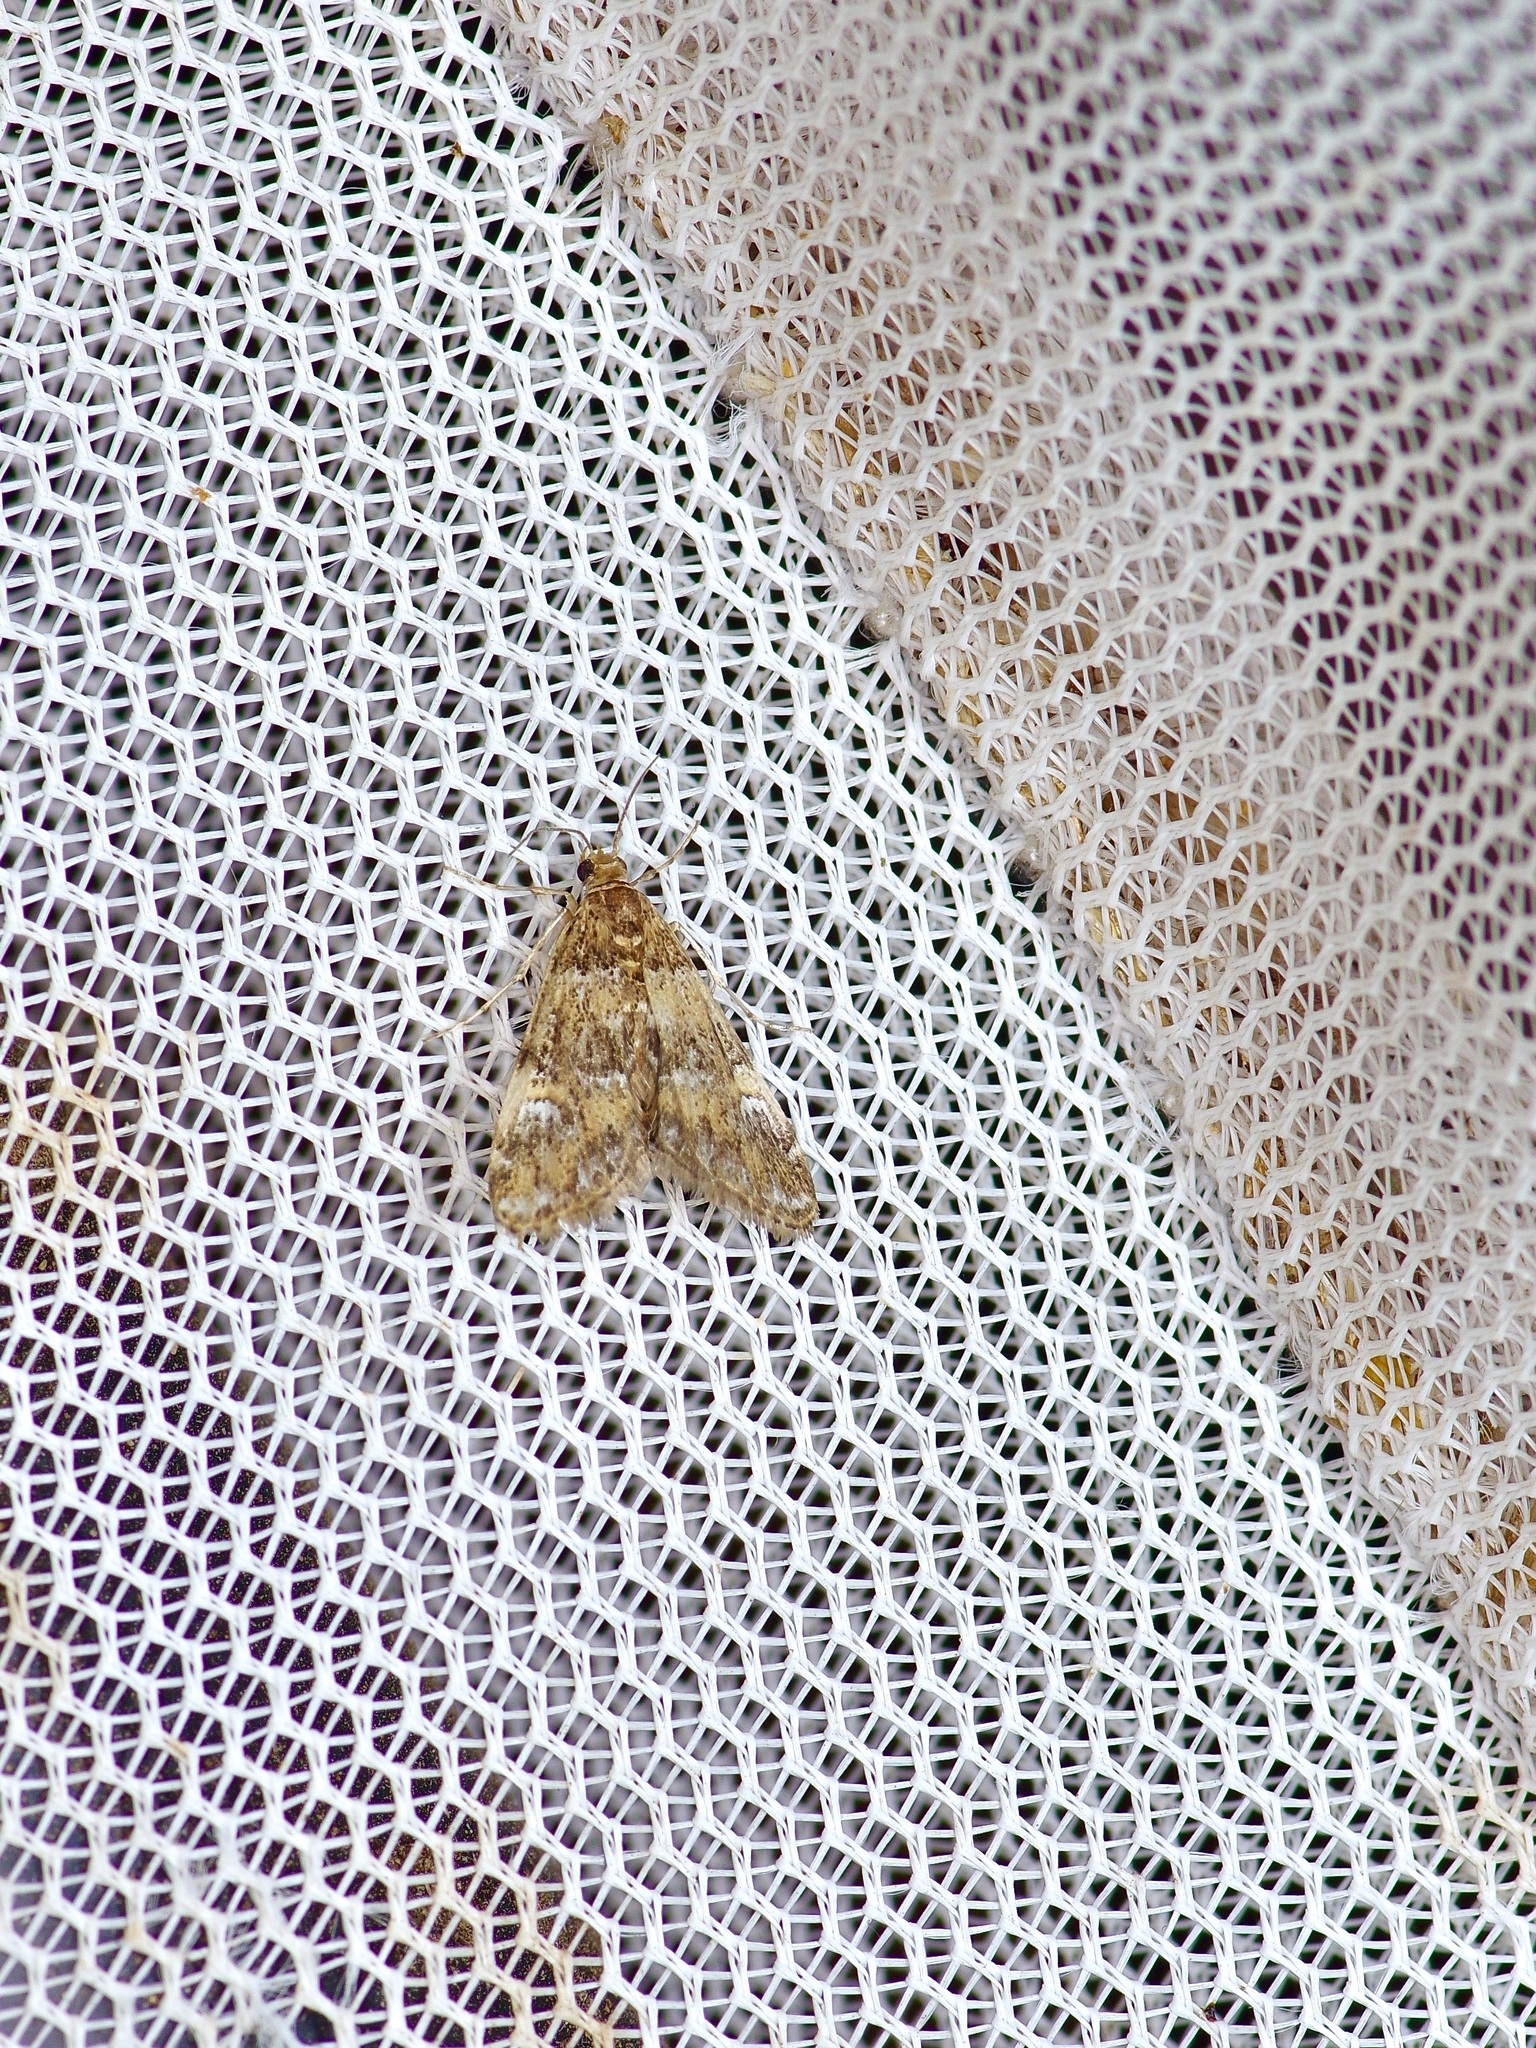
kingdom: Animalia
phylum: Arthropoda
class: Insecta
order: Lepidoptera
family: Crambidae
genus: Elophila
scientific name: Elophila obliteralis
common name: Waterlily leafcutter moth
